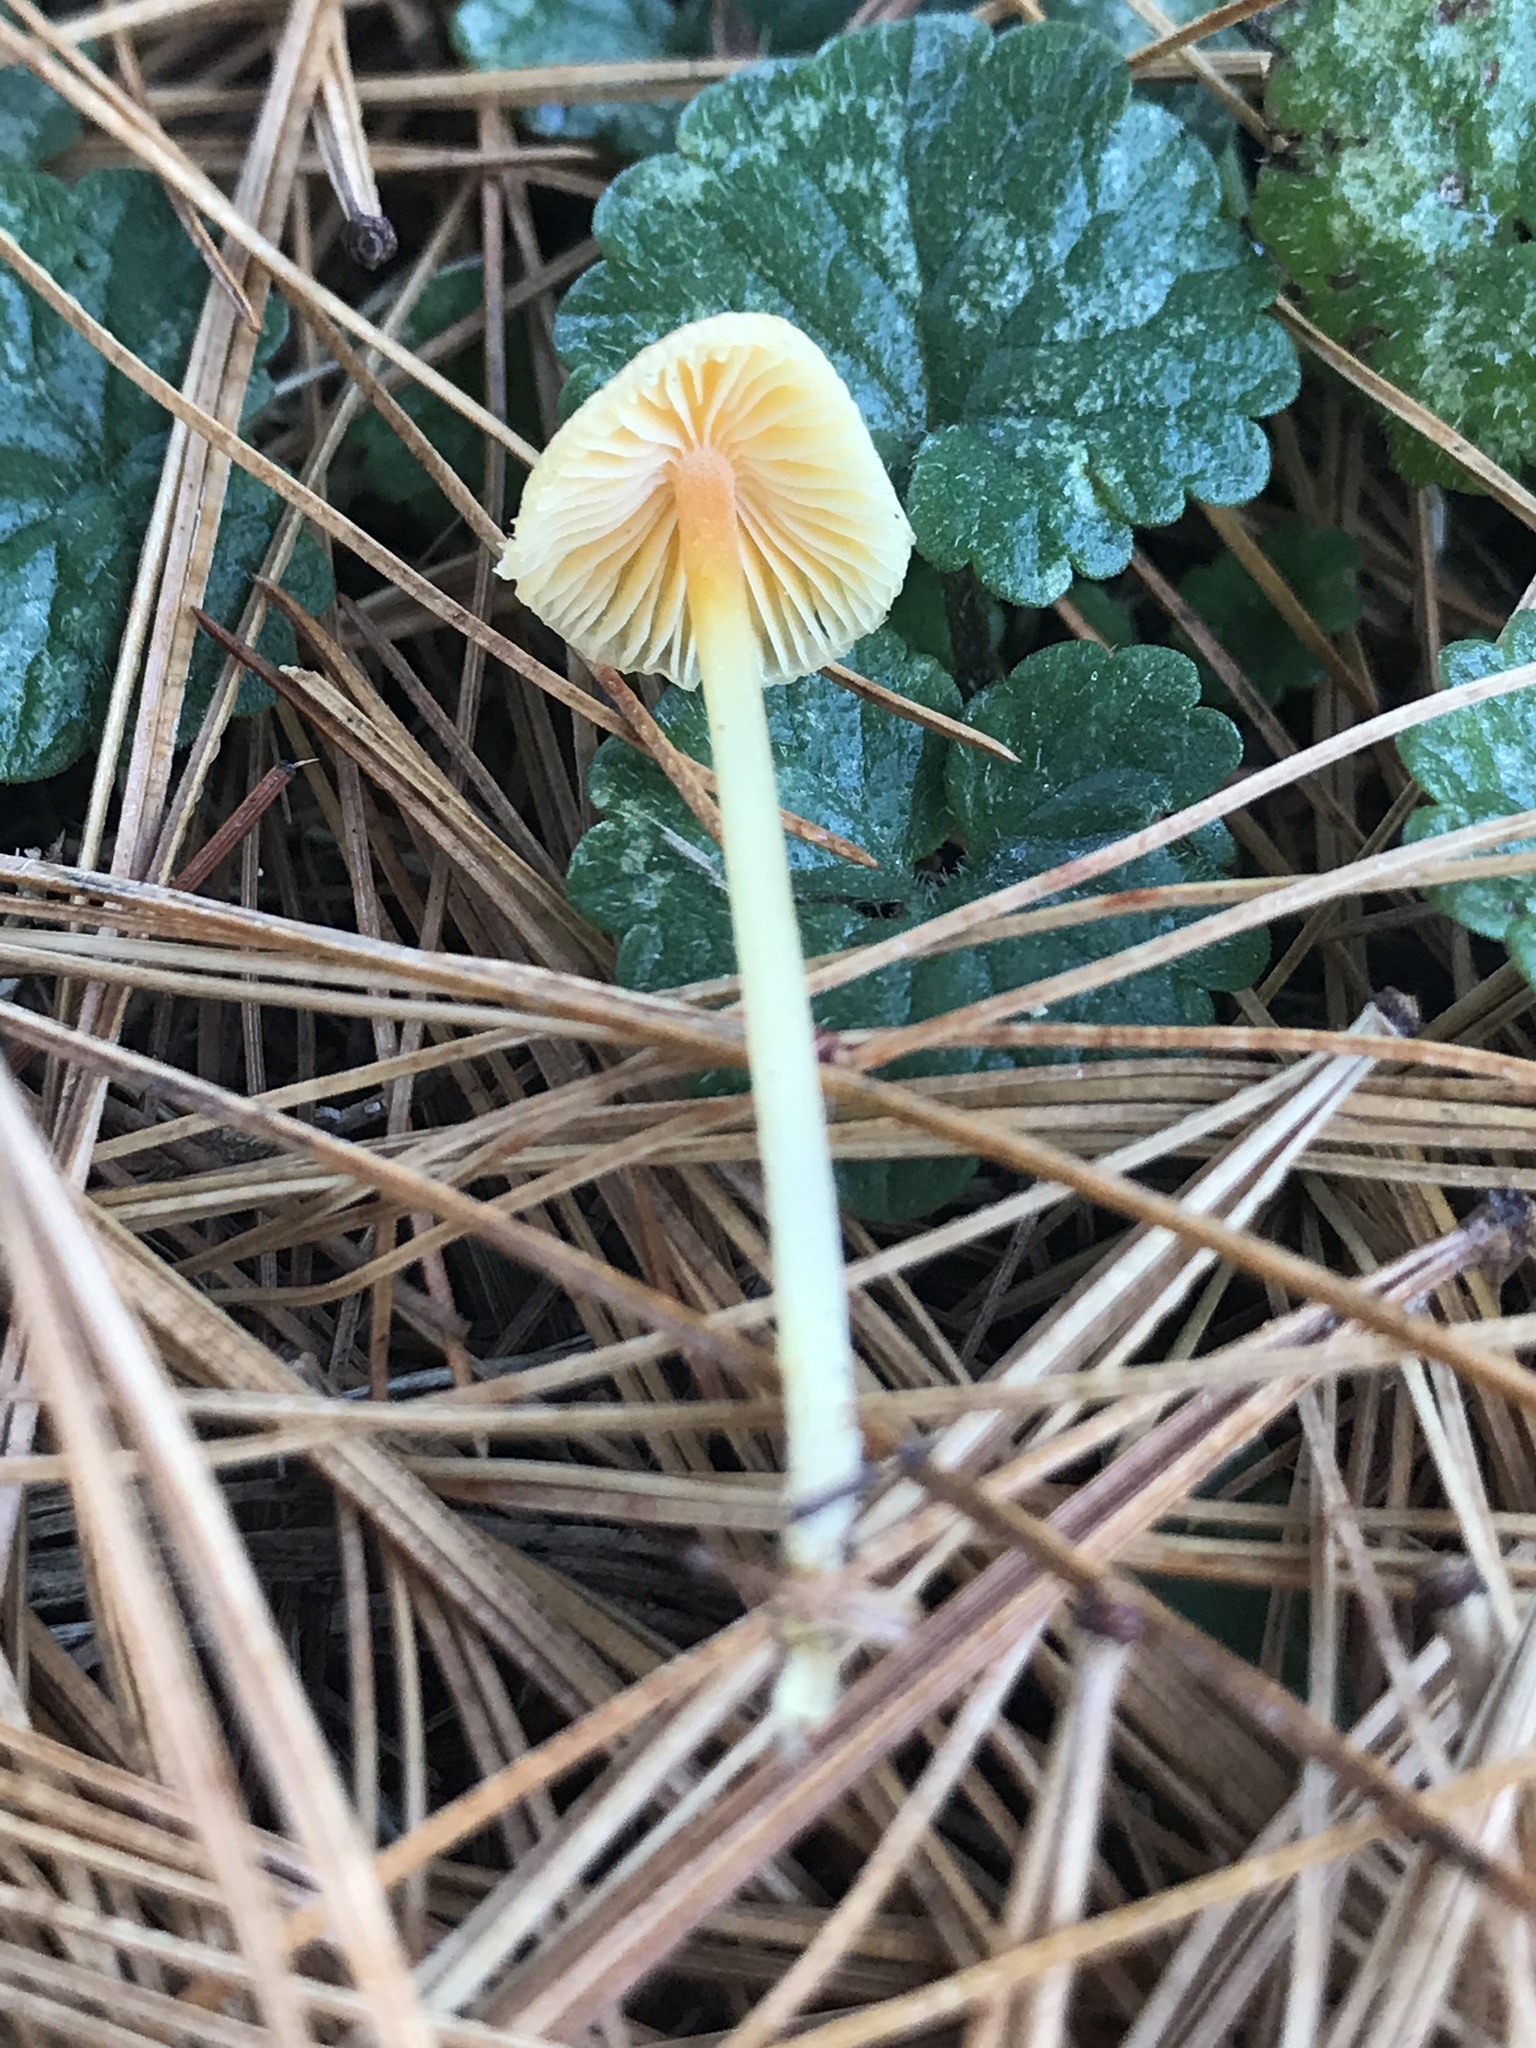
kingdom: Fungi
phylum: Basidiomycota
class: Agaricomycetes
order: Agaricales
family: Mycenaceae
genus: Mycena
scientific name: Mycena crocea
